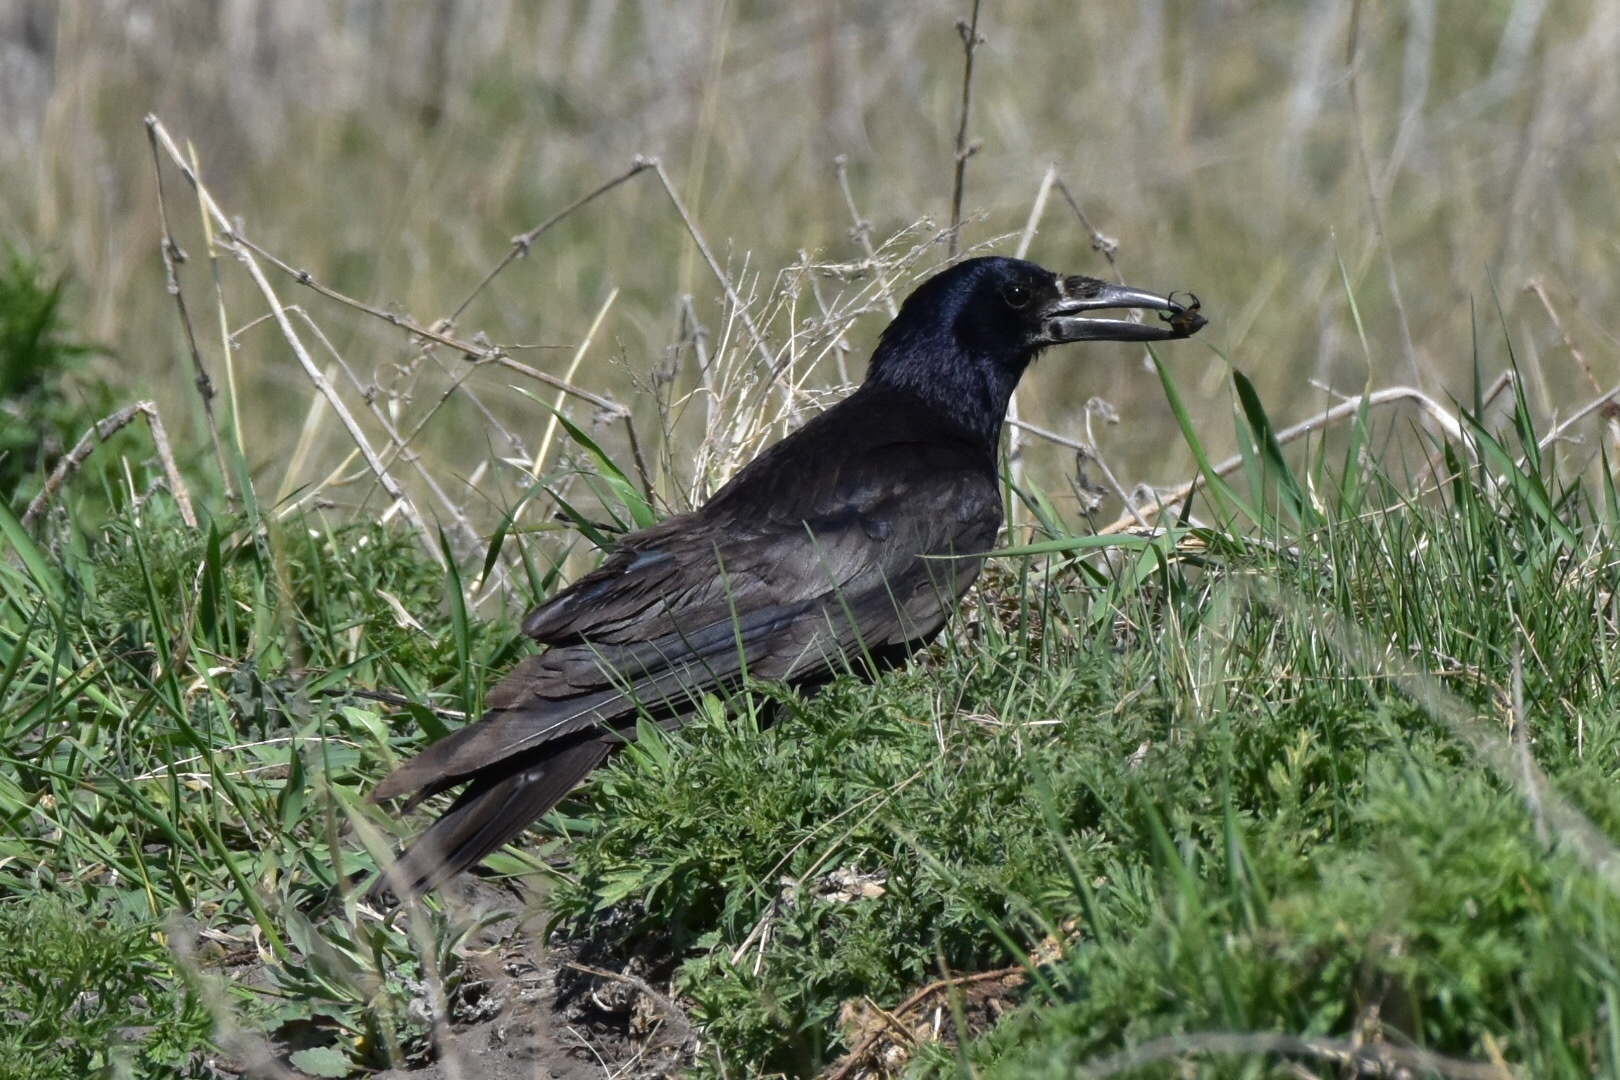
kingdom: Animalia
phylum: Chordata
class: Aves
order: Passeriformes
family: Corvidae
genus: Corvus
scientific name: Corvus corone
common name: Carrion crow
